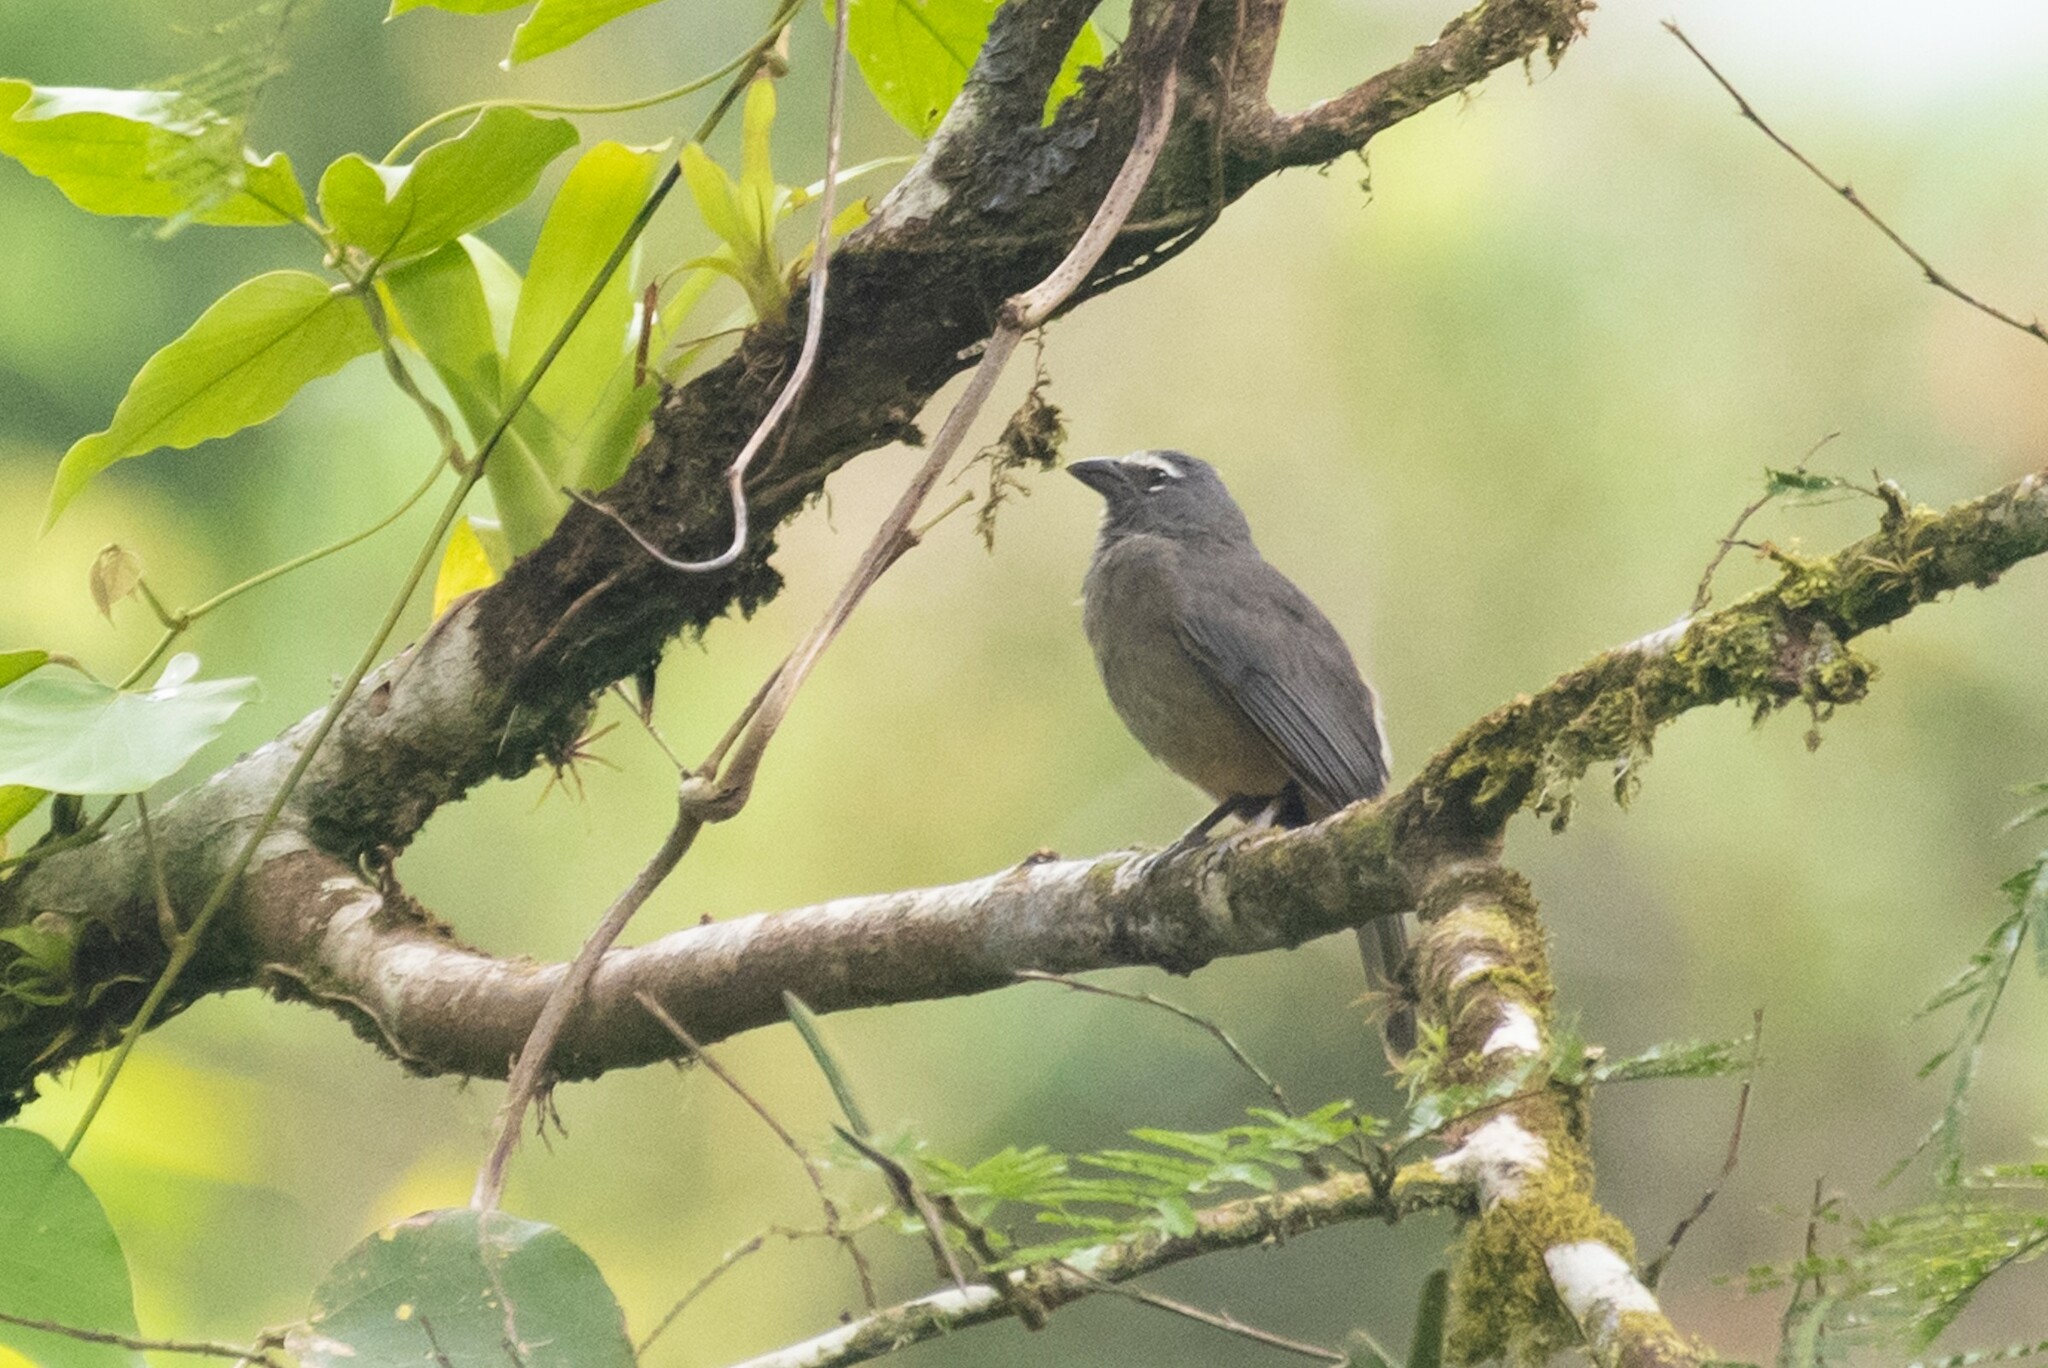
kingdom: Animalia
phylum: Chordata
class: Aves
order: Passeriformes
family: Thraupidae
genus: Saltator
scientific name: Saltator grandis
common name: Cinnamon-bellied saltator
